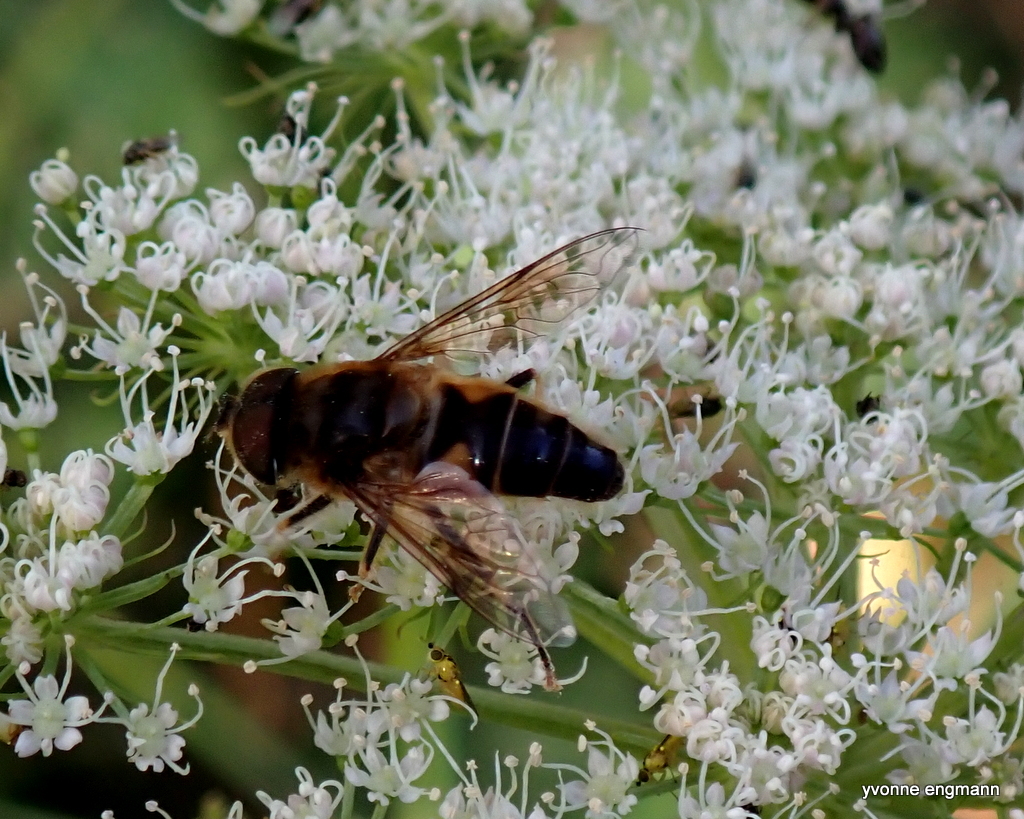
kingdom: Animalia
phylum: Arthropoda
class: Insecta
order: Diptera
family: Syrphidae
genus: Eristalis
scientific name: Eristalis pertinax
